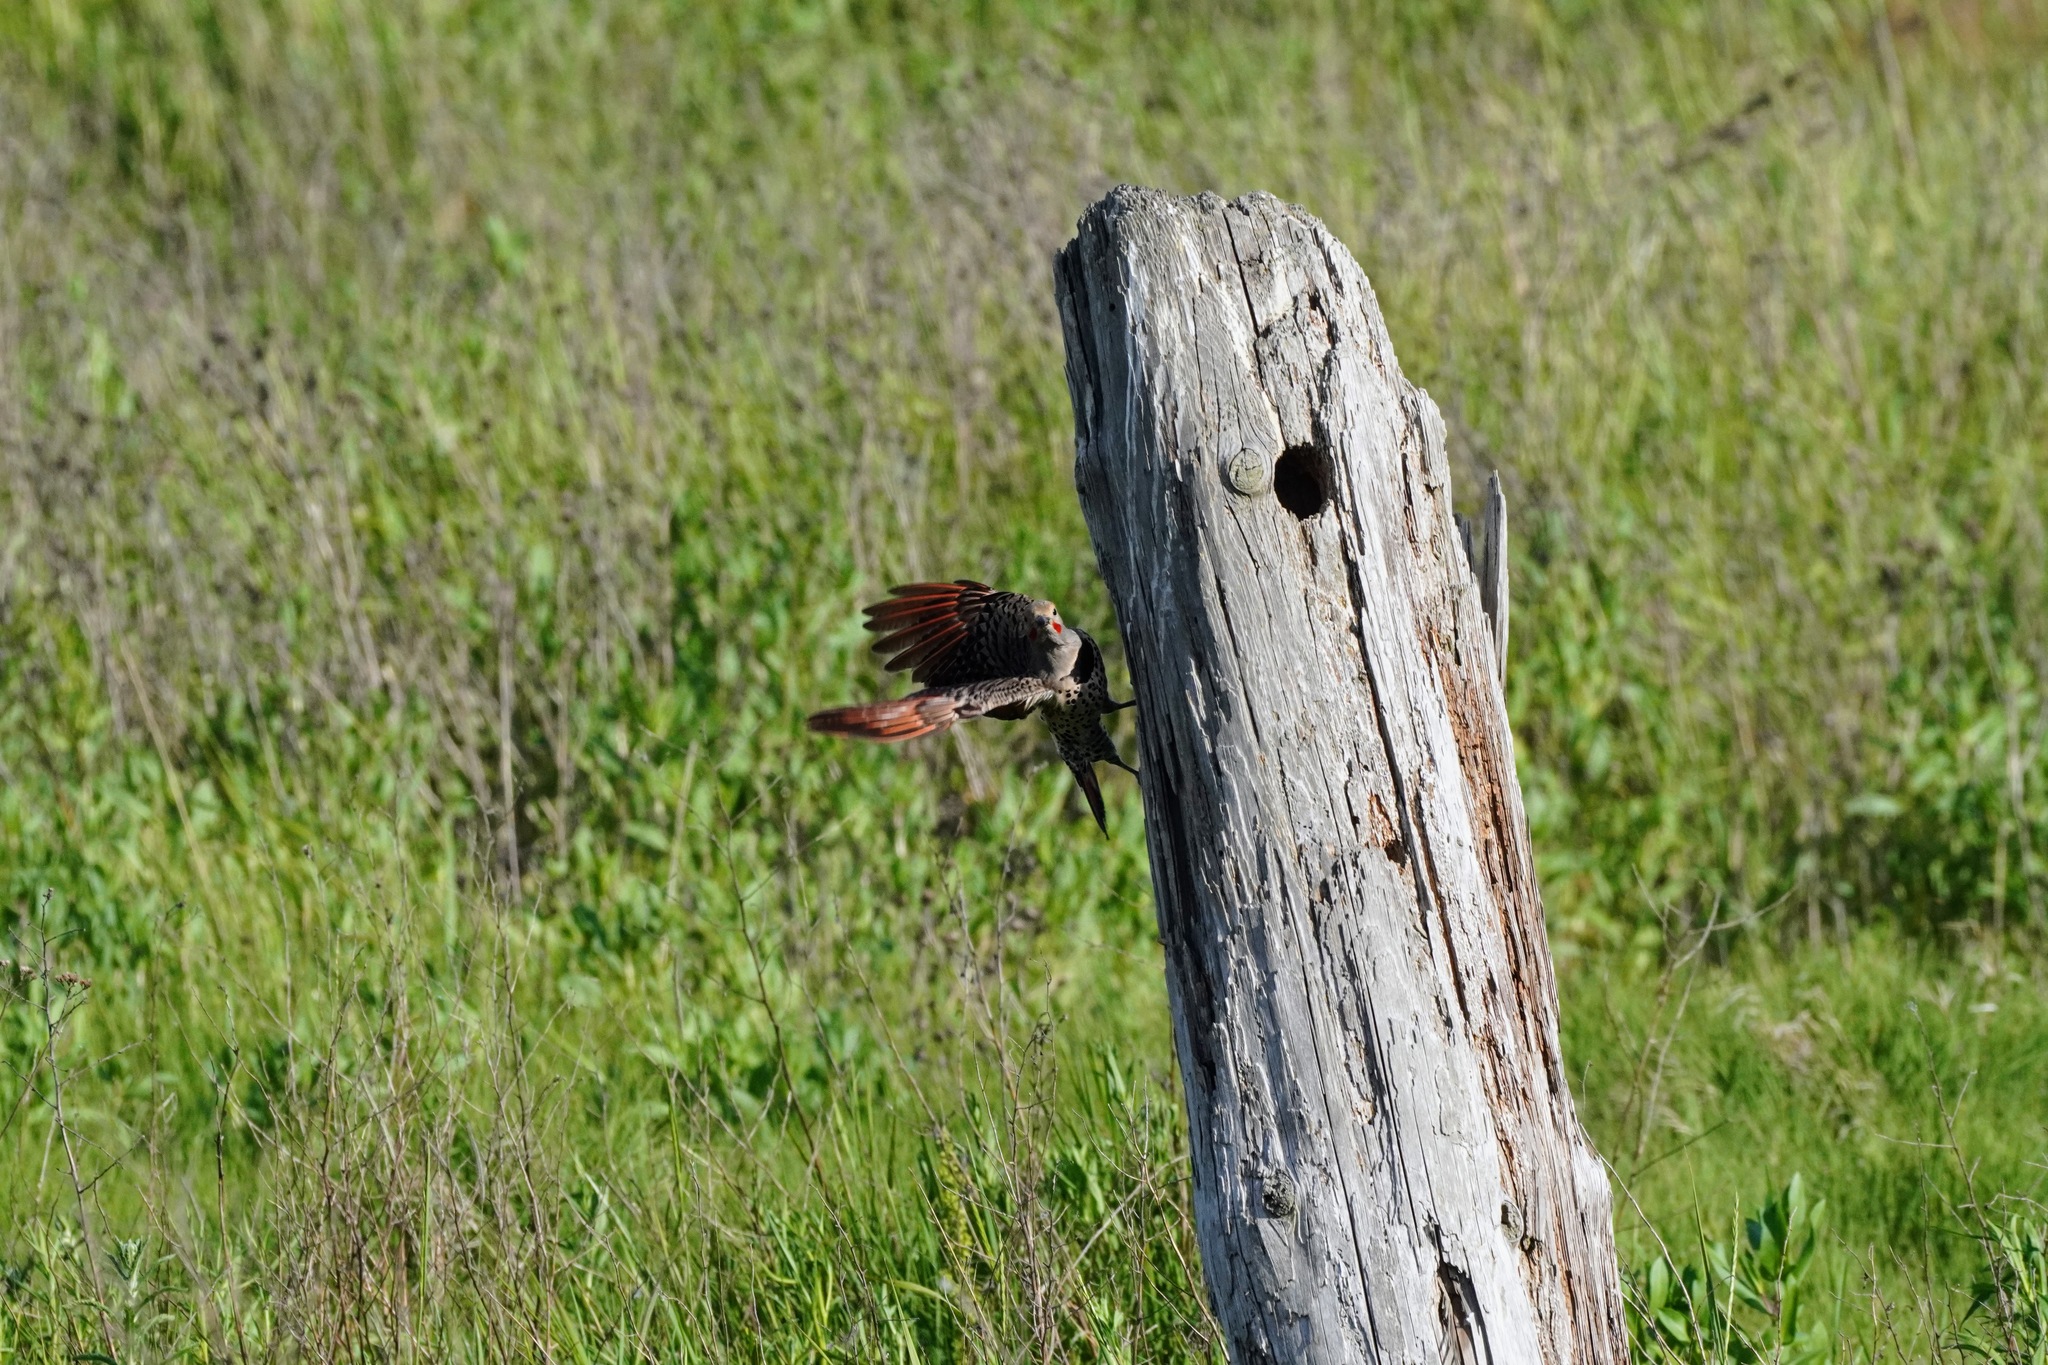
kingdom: Animalia
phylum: Chordata
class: Aves
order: Piciformes
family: Picidae
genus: Colaptes
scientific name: Colaptes auratus
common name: Northern flicker
